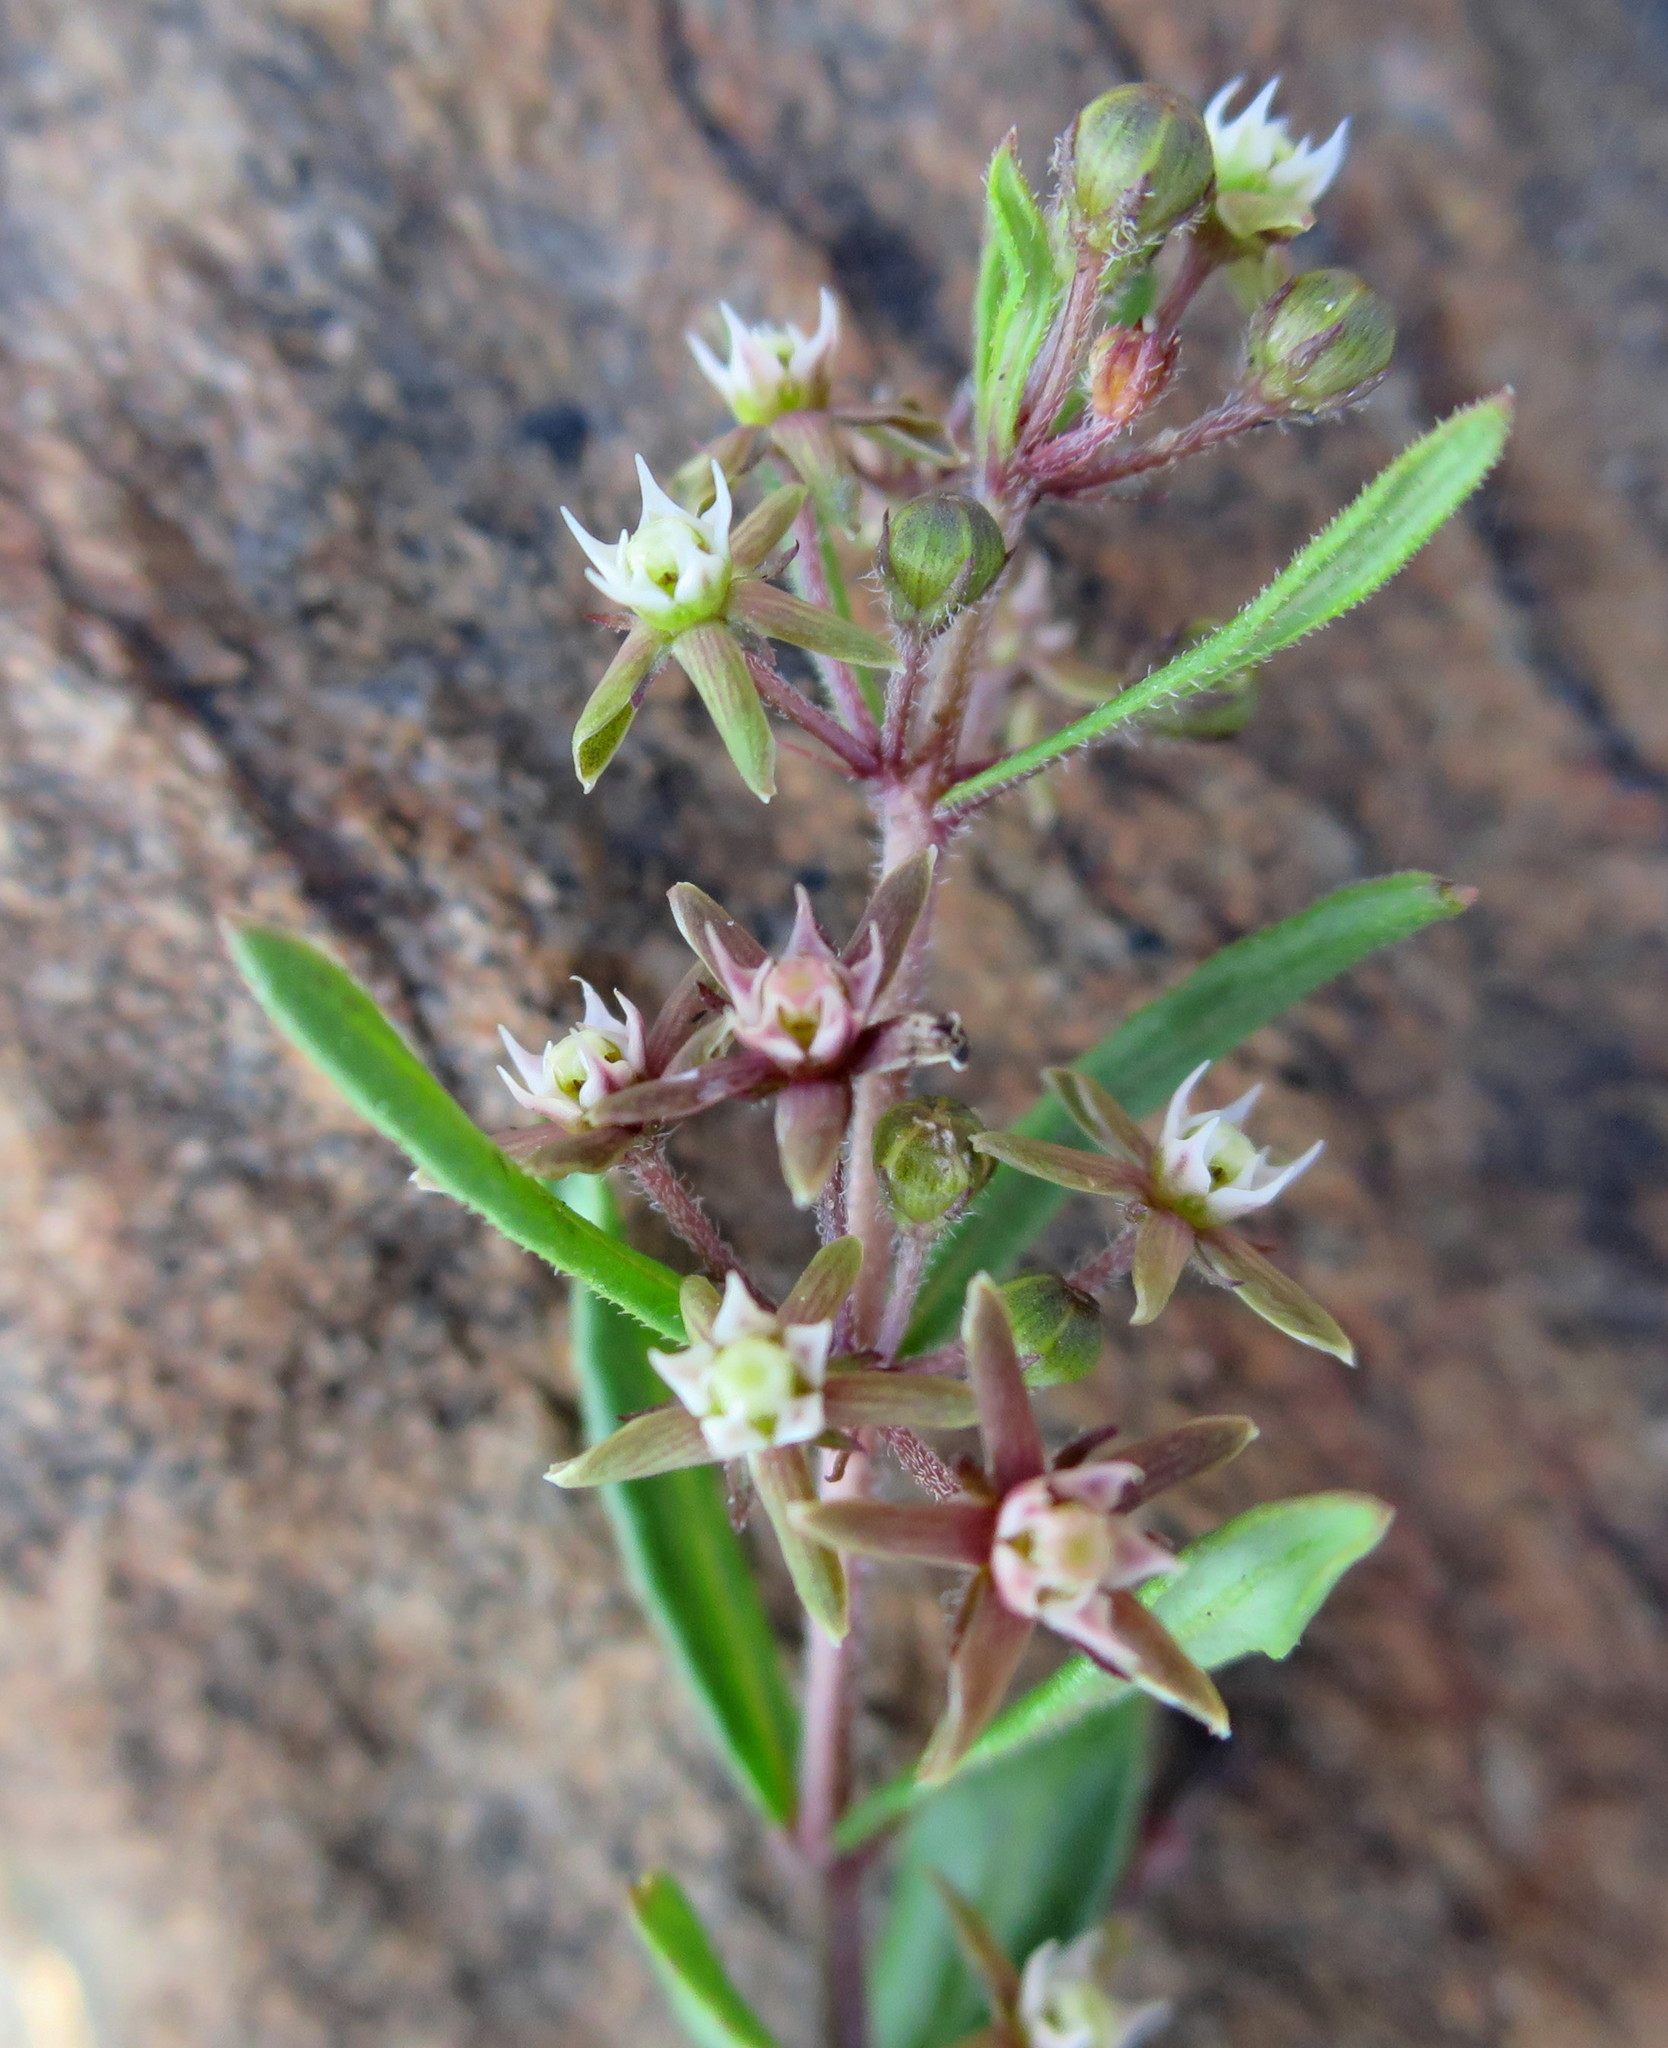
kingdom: Plantae
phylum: Tracheophyta
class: Magnoliopsida
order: Gentianales
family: Apocynaceae
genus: Aspidoglossum
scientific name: Aspidoglossum heterophyllum
